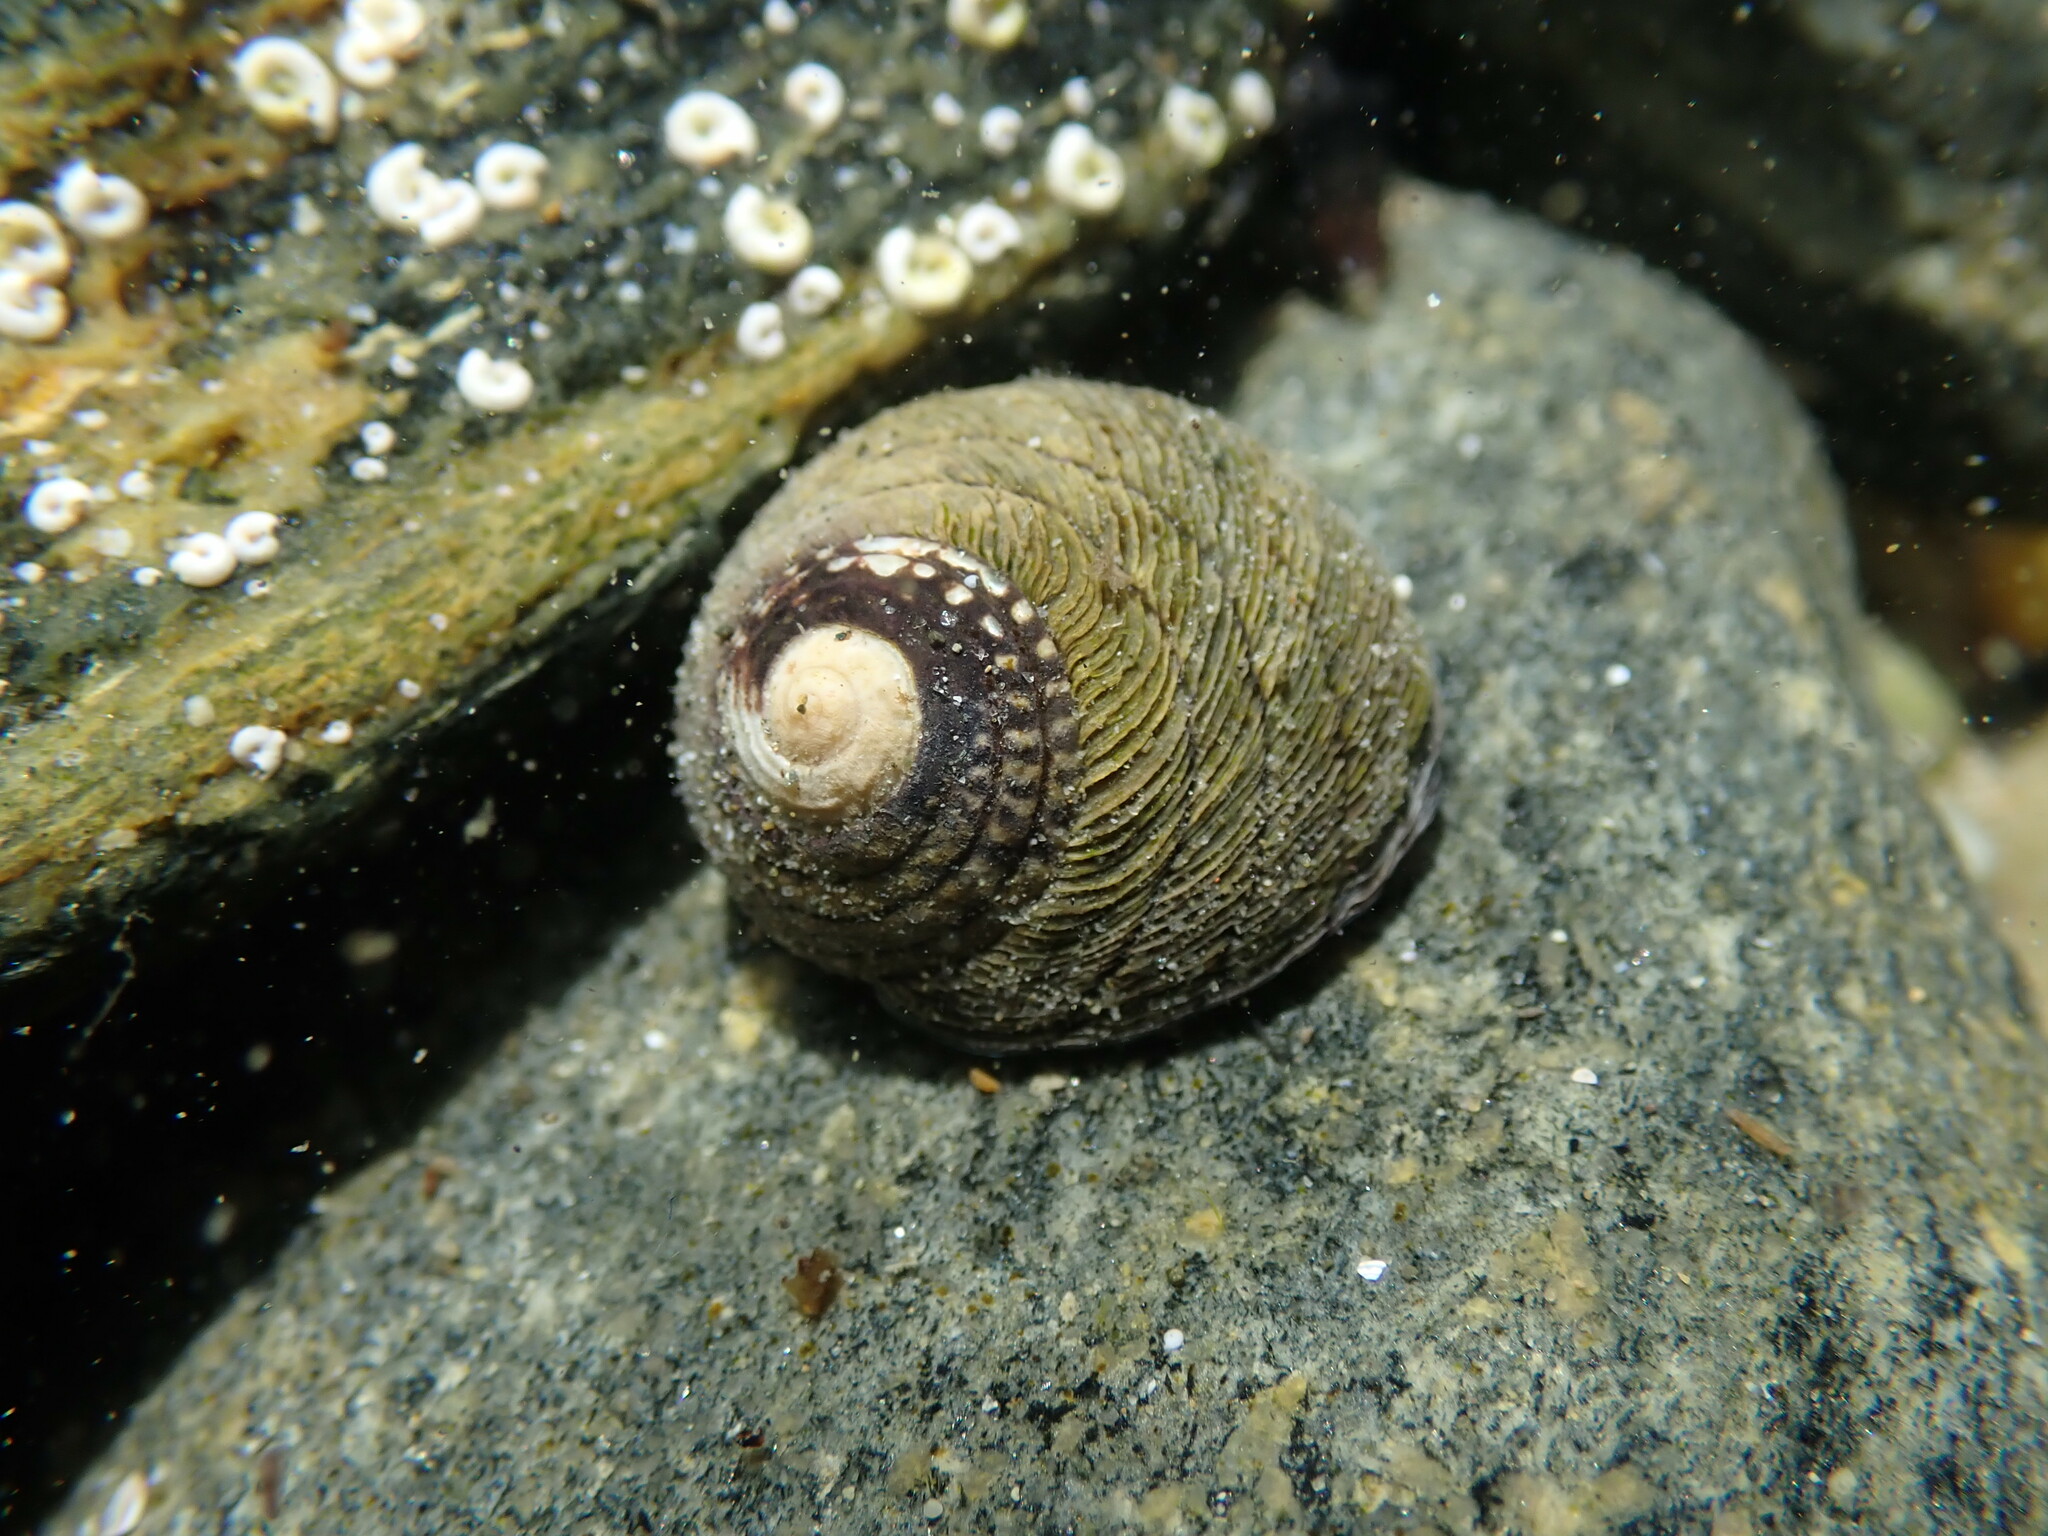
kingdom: Animalia
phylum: Mollusca
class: Gastropoda
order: Trochida
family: Trochidae
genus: Diloma
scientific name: Diloma aethiops
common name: Scorched monodont
